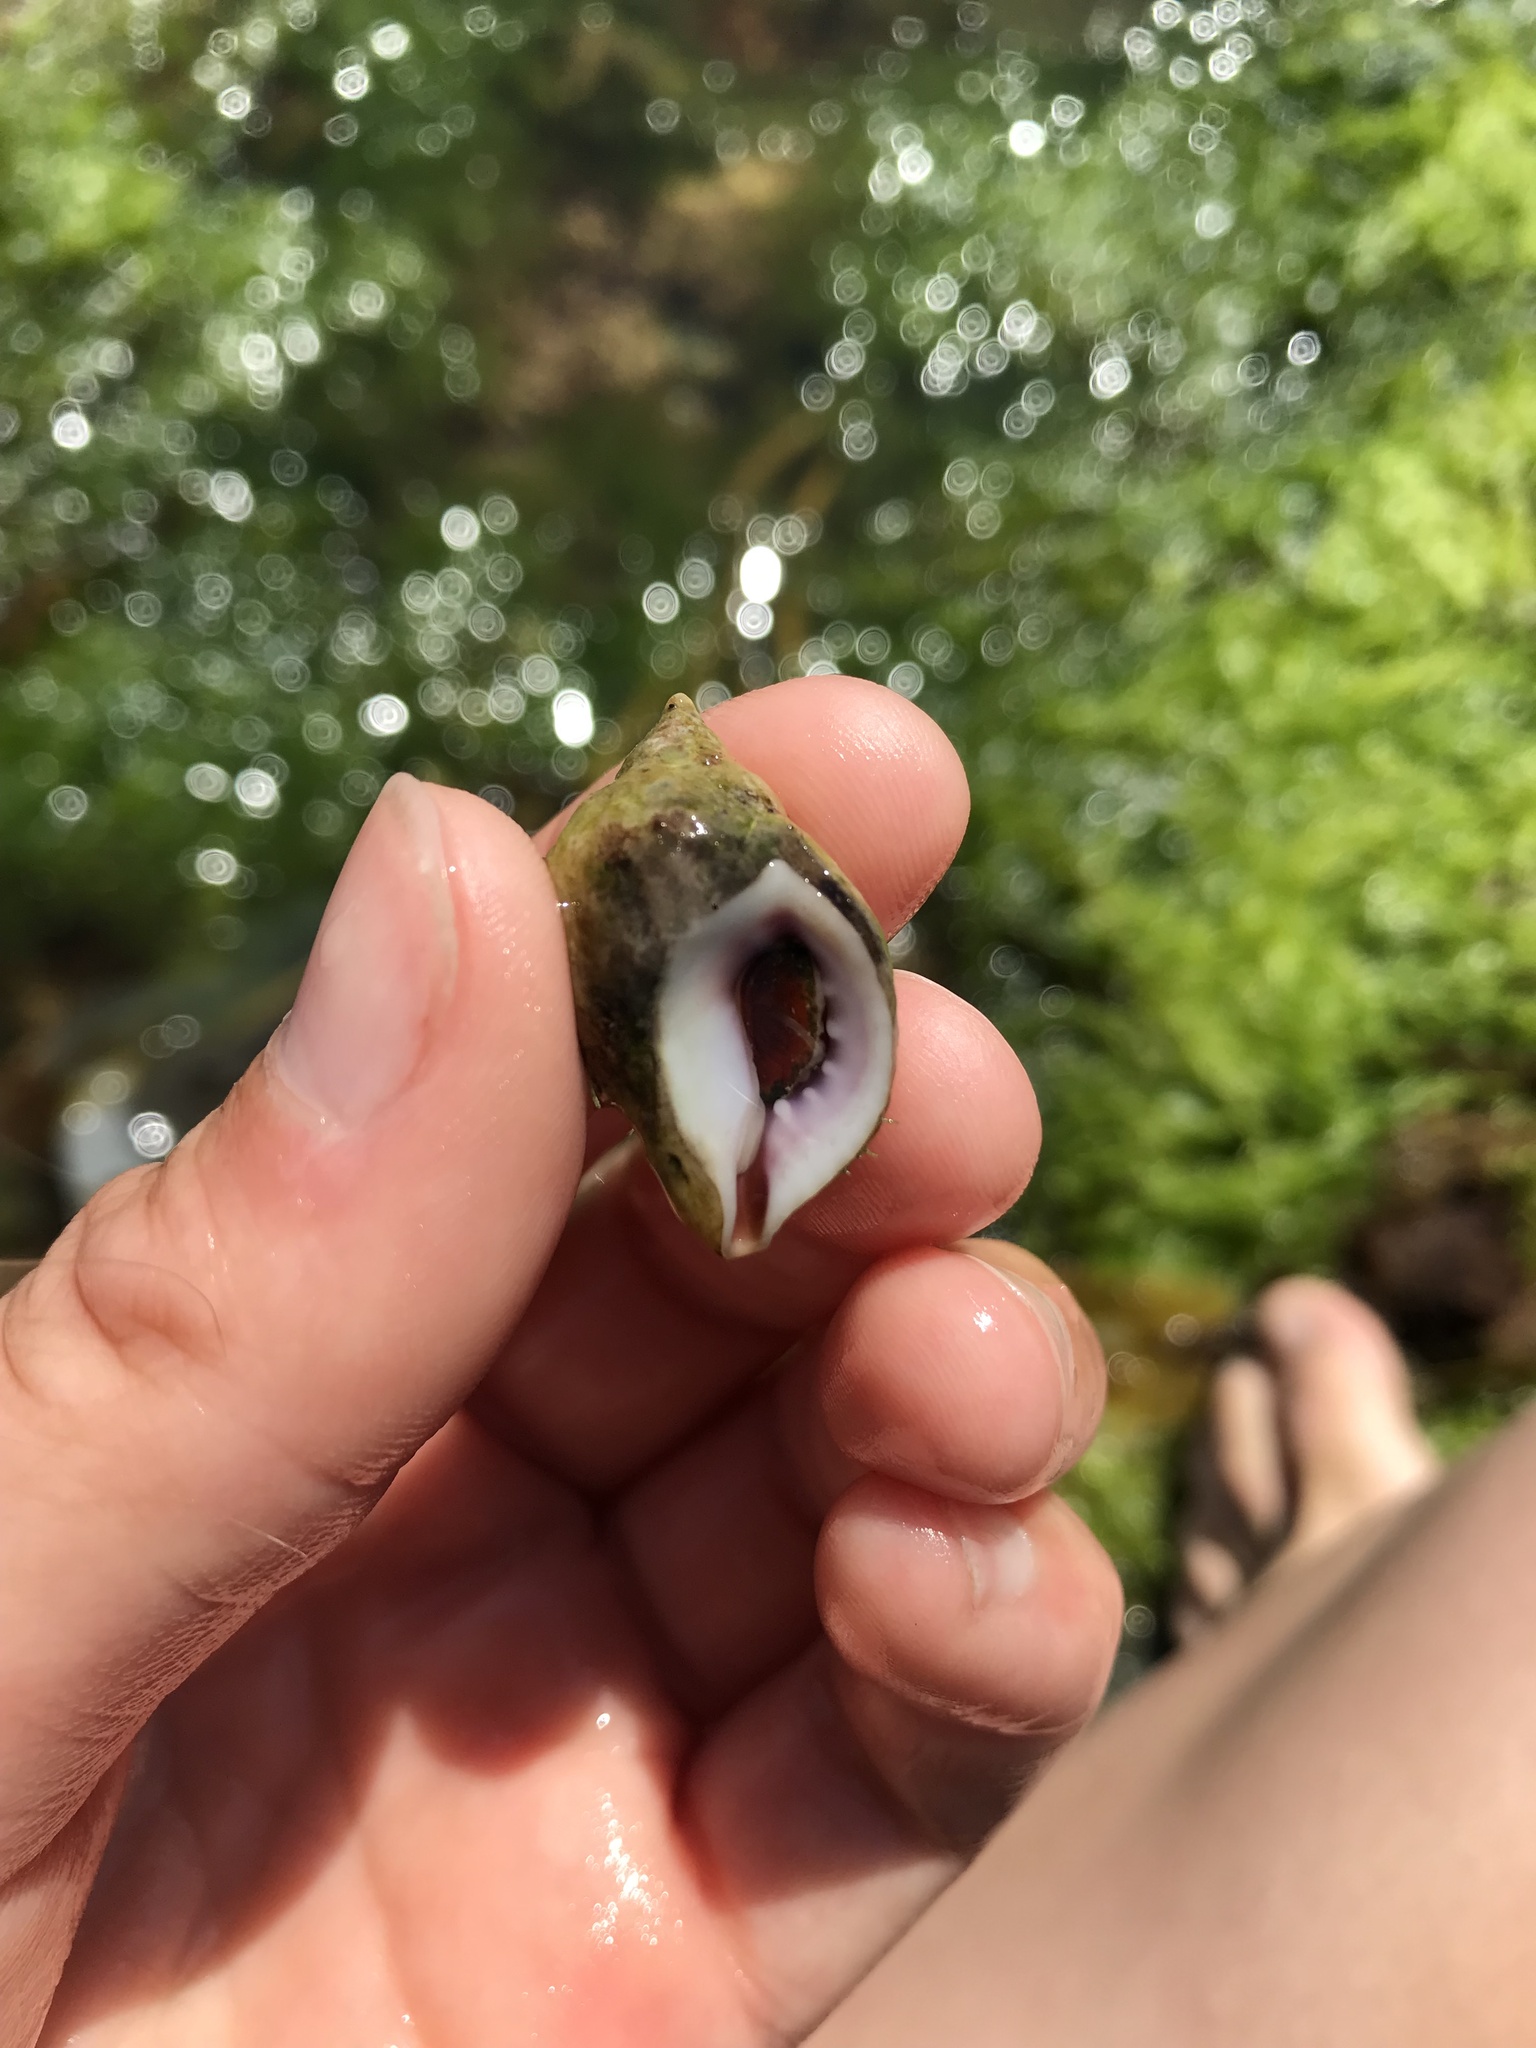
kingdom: Animalia
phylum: Mollusca
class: Gastropoda
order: Neogastropoda
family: Muricidae
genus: Nucella
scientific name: Nucella lapillus
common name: Dog whelk
